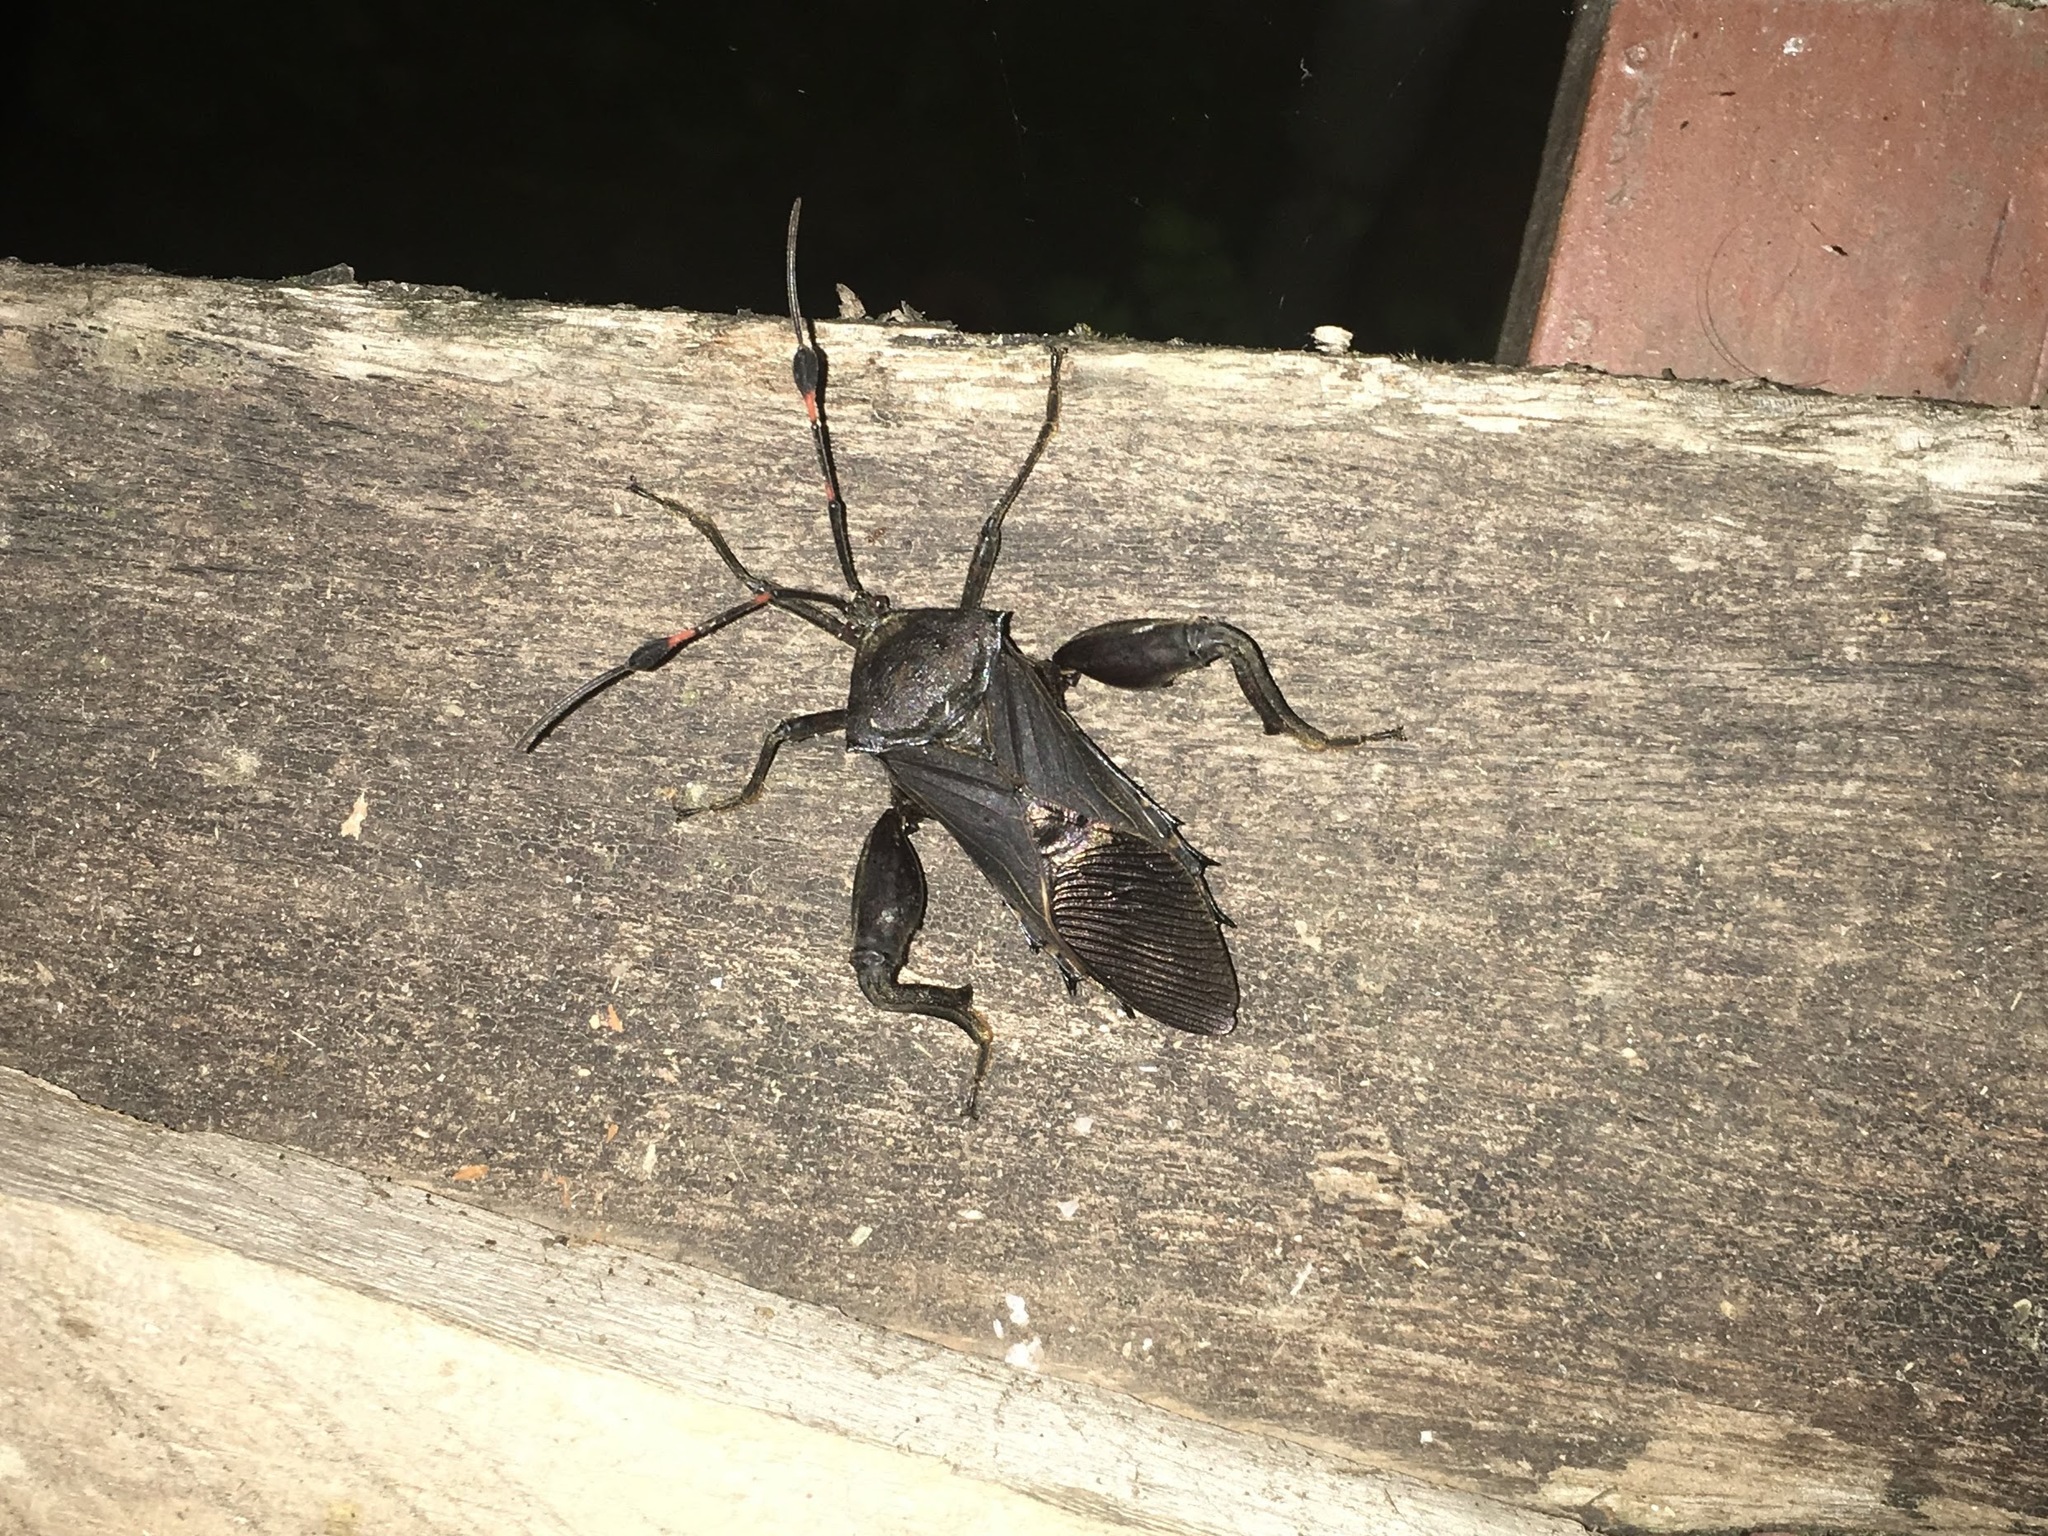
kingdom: Animalia
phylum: Arthropoda
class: Insecta
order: Hemiptera
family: Coreidae
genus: Thasus
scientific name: Thasus acutangulus
